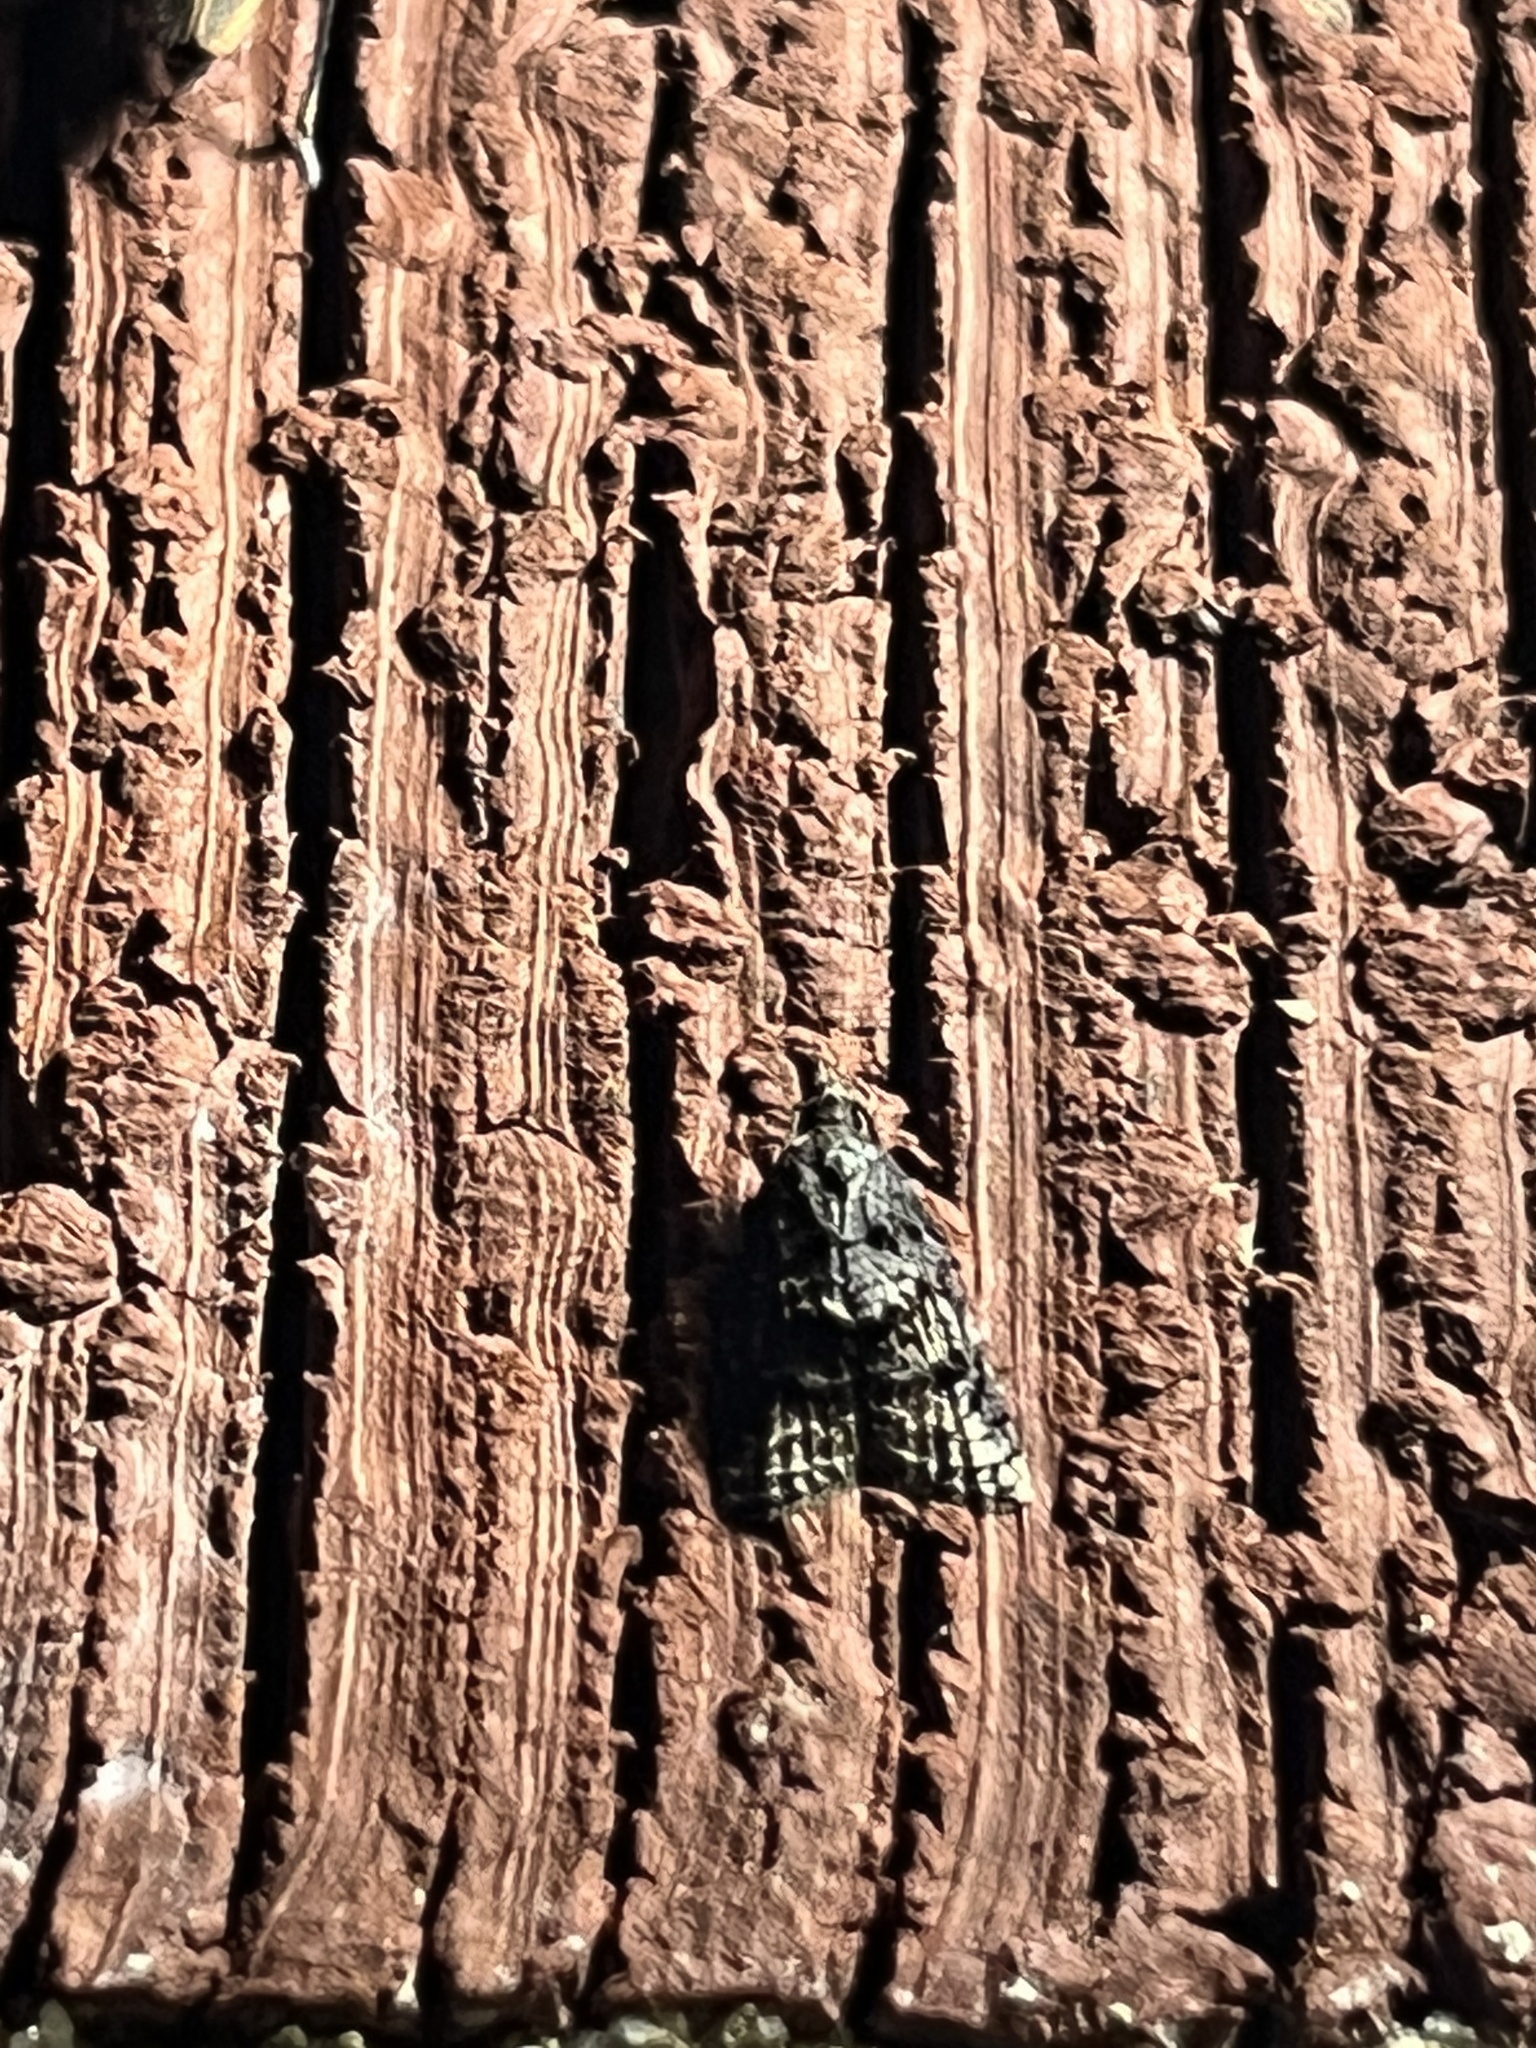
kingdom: Animalia
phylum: Arthropoda
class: Insecta
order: Lepidoptera
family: Tortricidae
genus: Platynota
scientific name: Platynota idaeusalis
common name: Tufted apple bud moth
